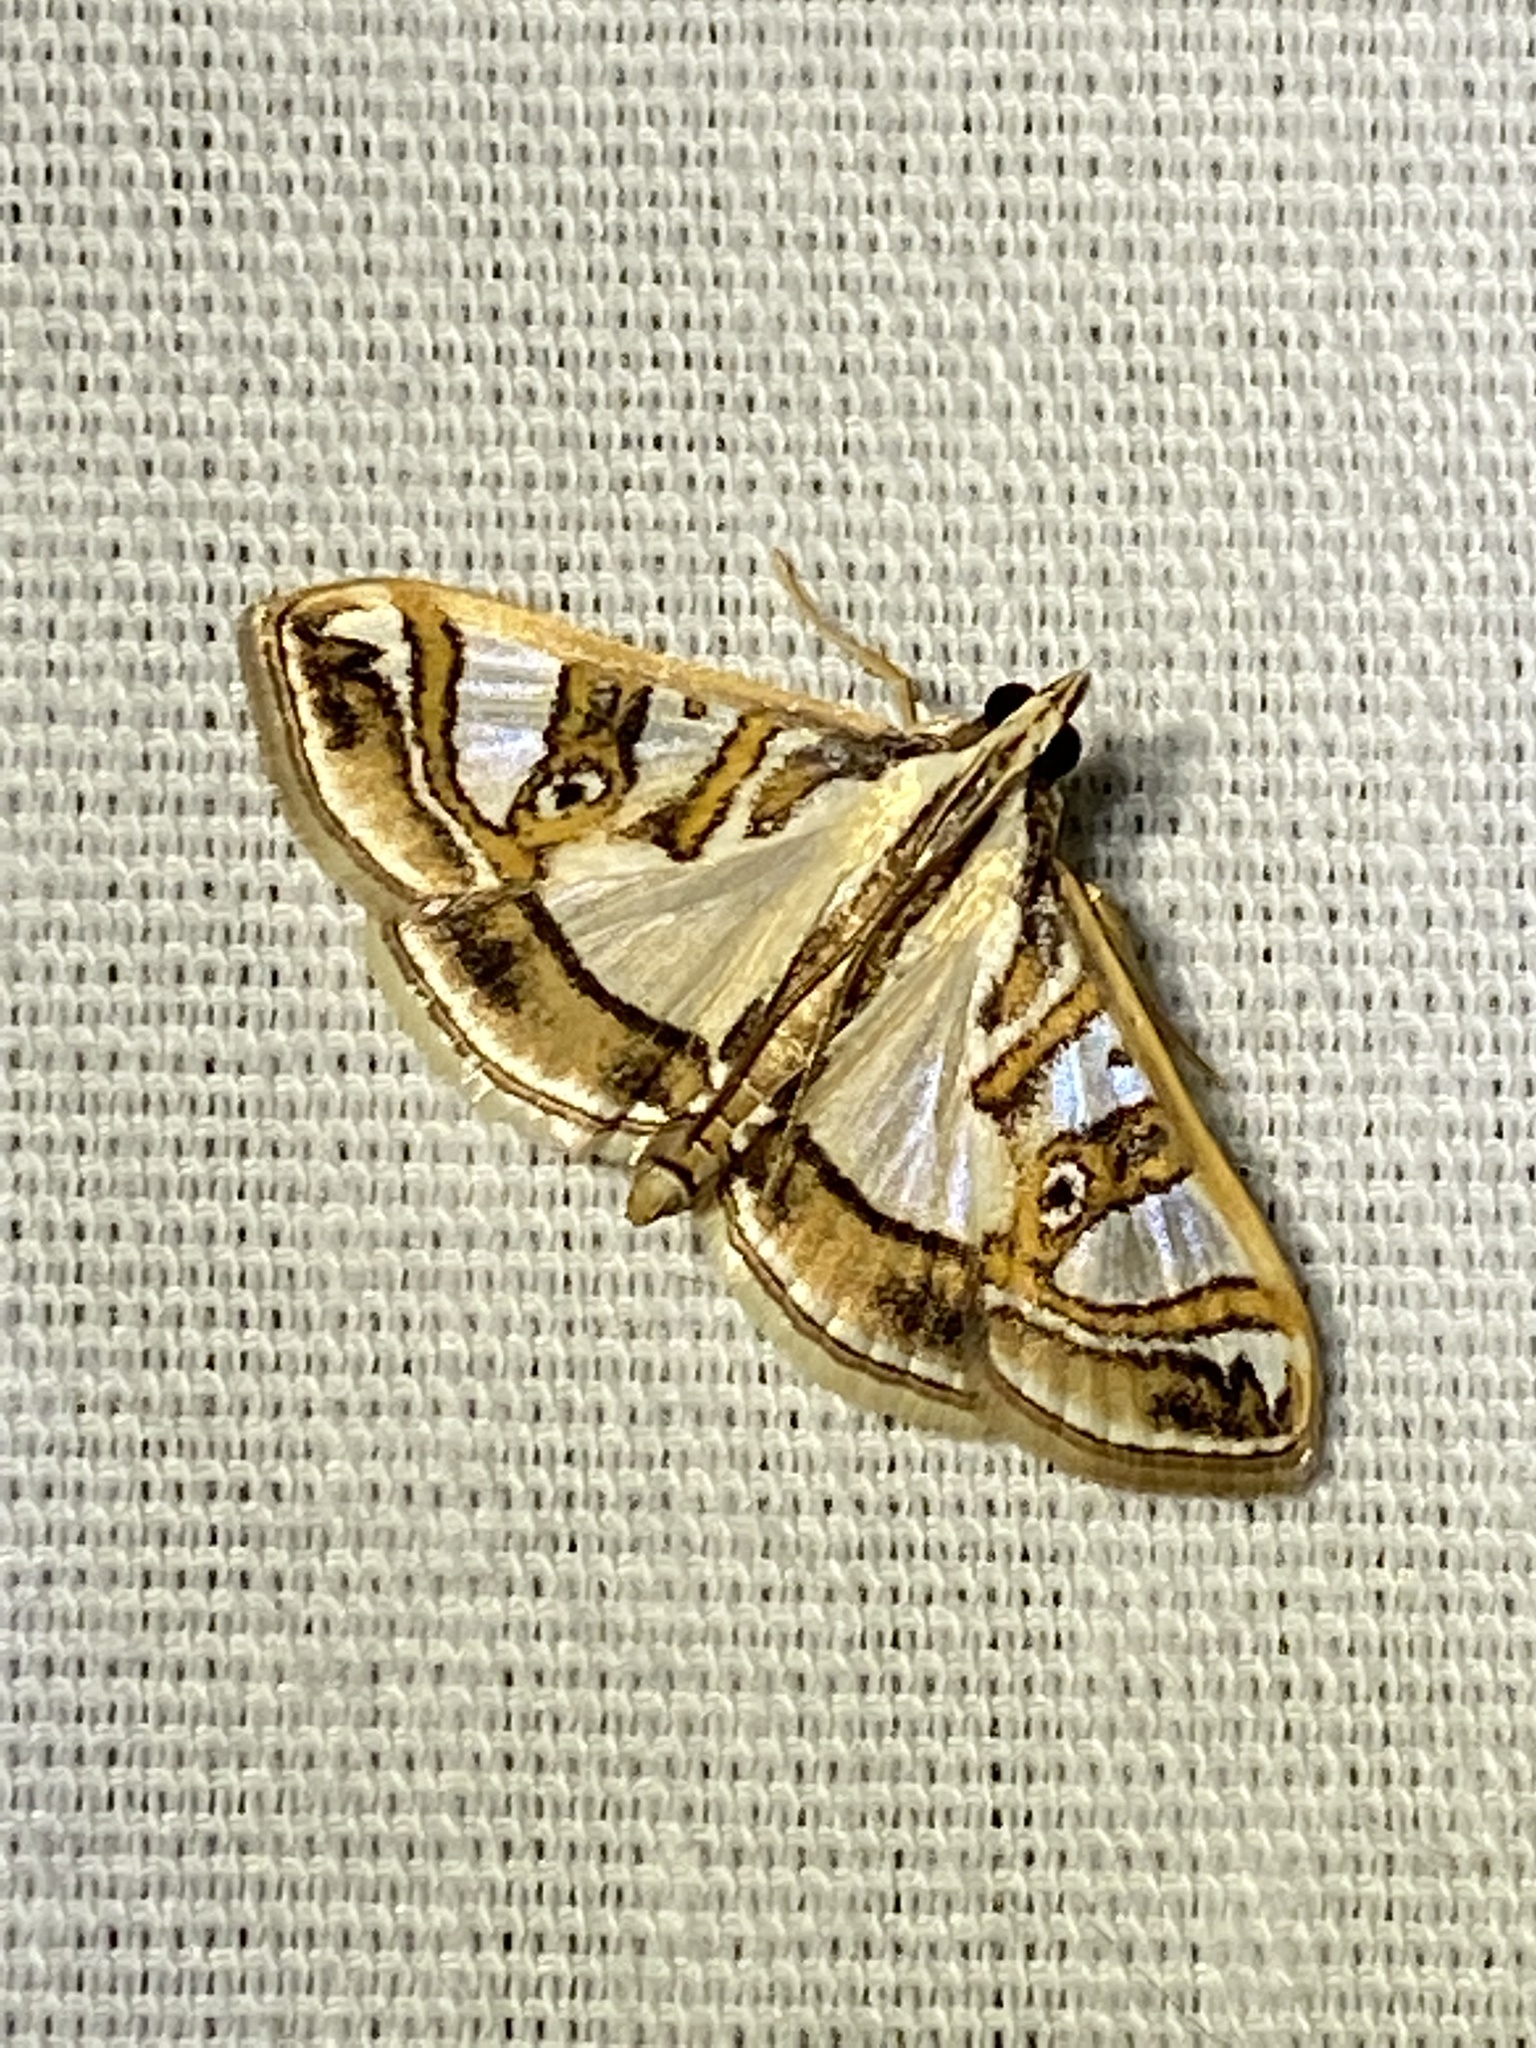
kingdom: Animalia
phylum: Arthropoda
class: Insecta
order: Lepidoptera
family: Crambidae
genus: Glyphodes
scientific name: Glyphodes pyloalis
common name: Lesser mulberry snout moth
